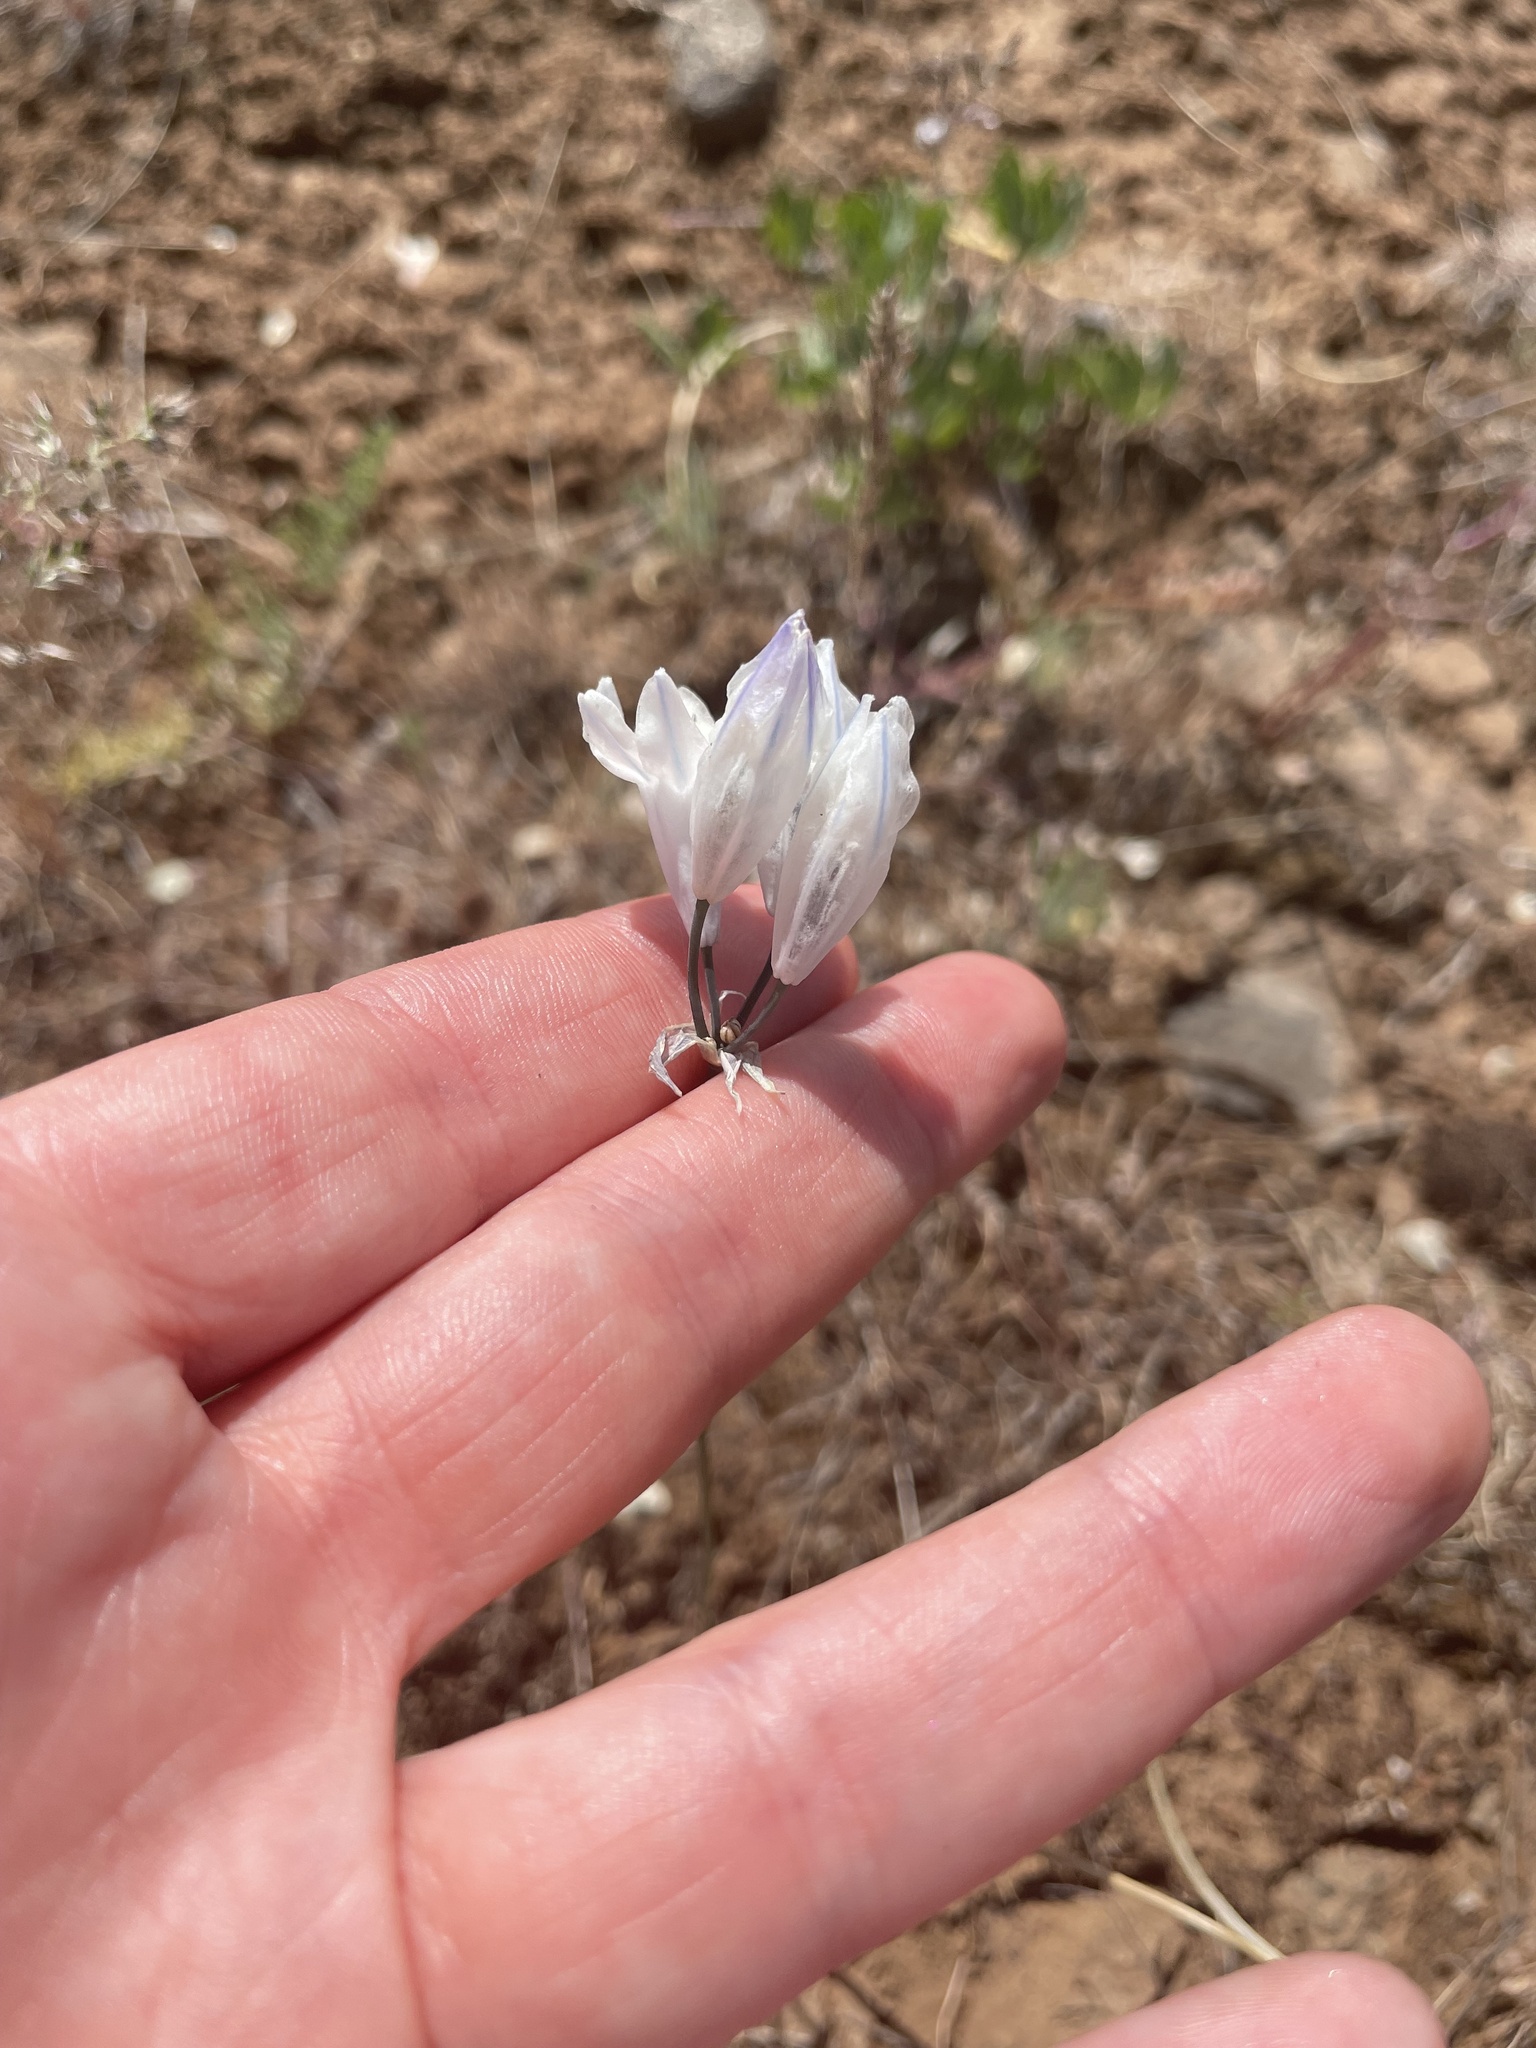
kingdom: Plantae
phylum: Tracheophyta
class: Liliopsida
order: Asparagales
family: Asparagaceae
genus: Triteleia
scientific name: Triteleia grandiflora
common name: Wild hyacinth
